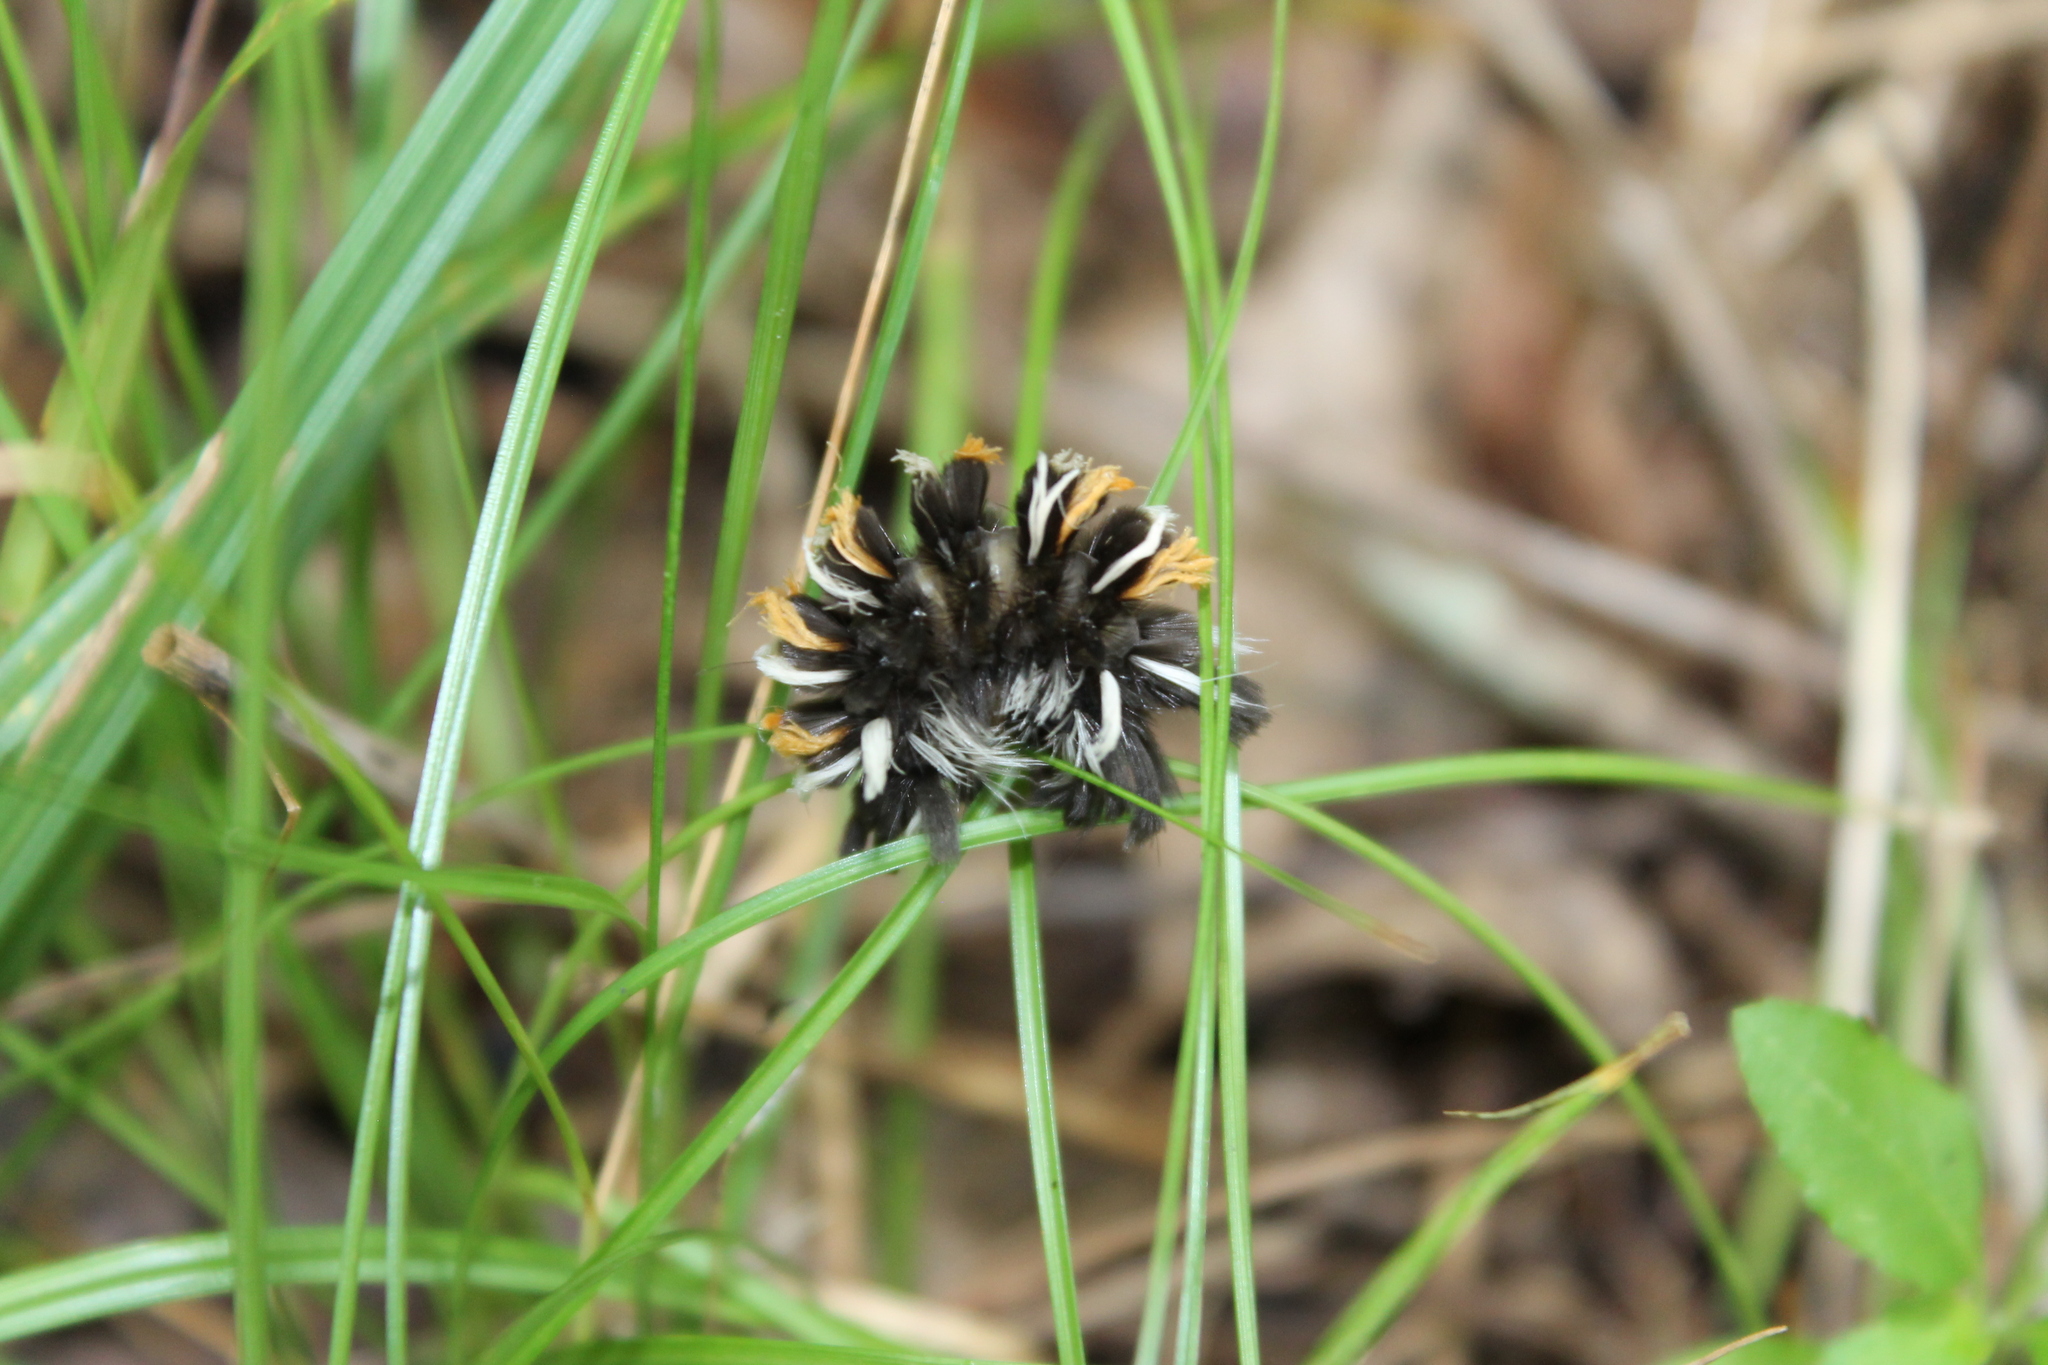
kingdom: Animalia
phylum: Arthropoda
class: Insecta
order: Lepidoptera
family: Erebidae
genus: Euchaetes
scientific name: Euchaetes egle
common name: Milkweed tussock moth
